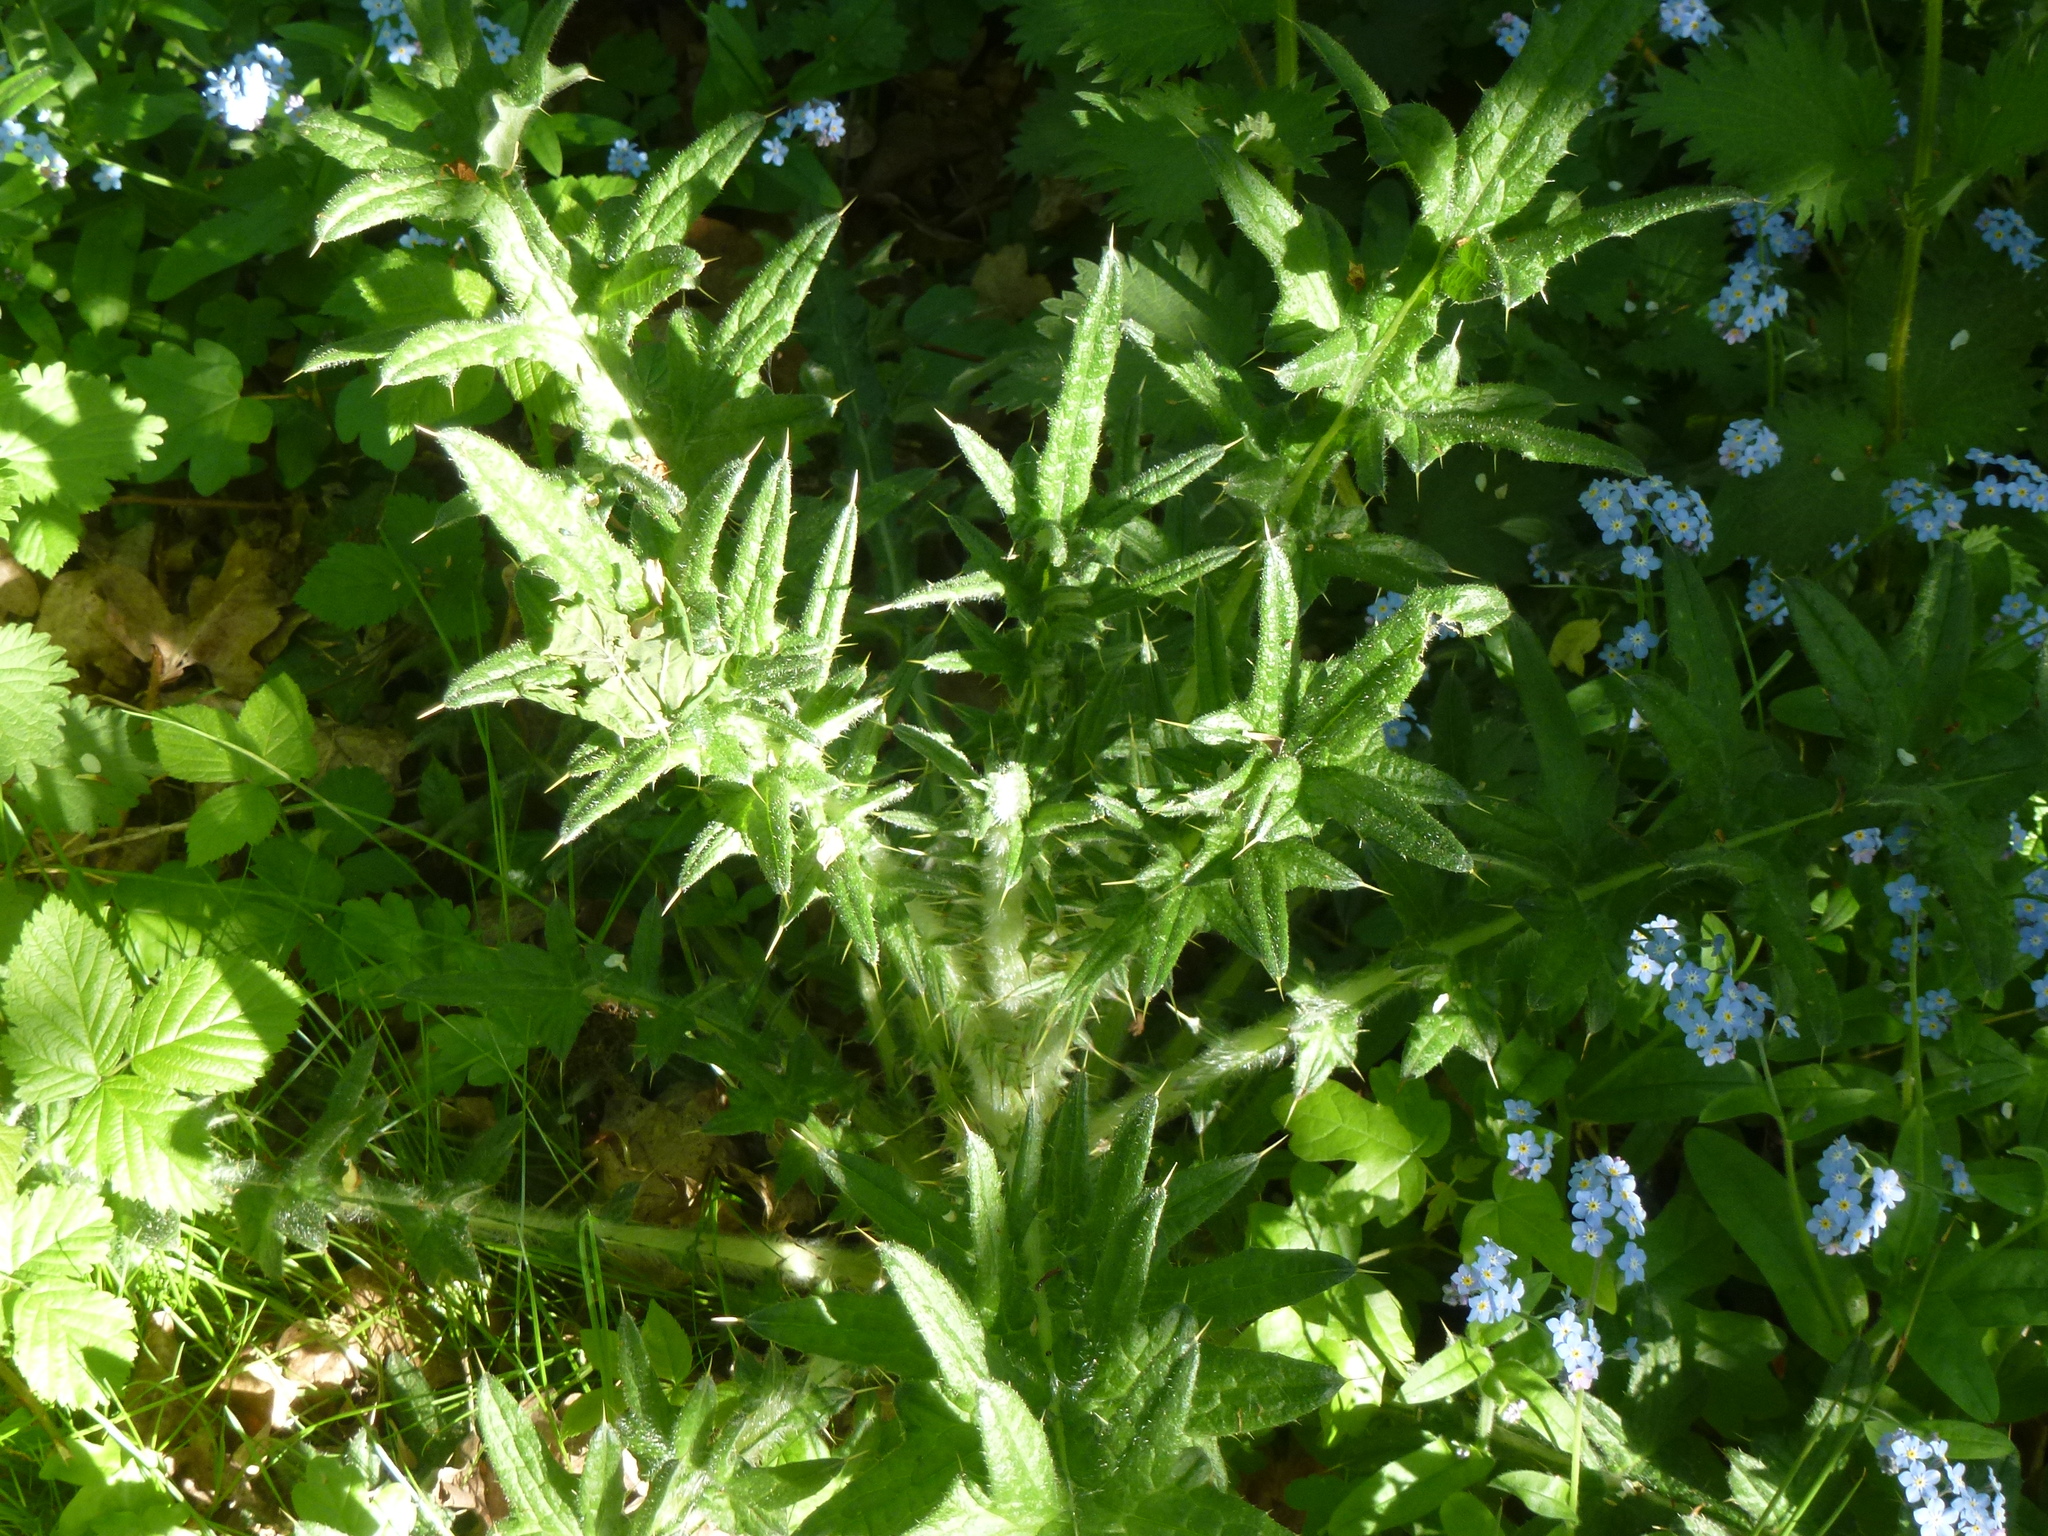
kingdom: Plantae
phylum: Tracheophyta
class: Magnoliopsida
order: Asterales
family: Asteraceae
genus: Cirsium
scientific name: Cirsium vulgare
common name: Bull thistle
